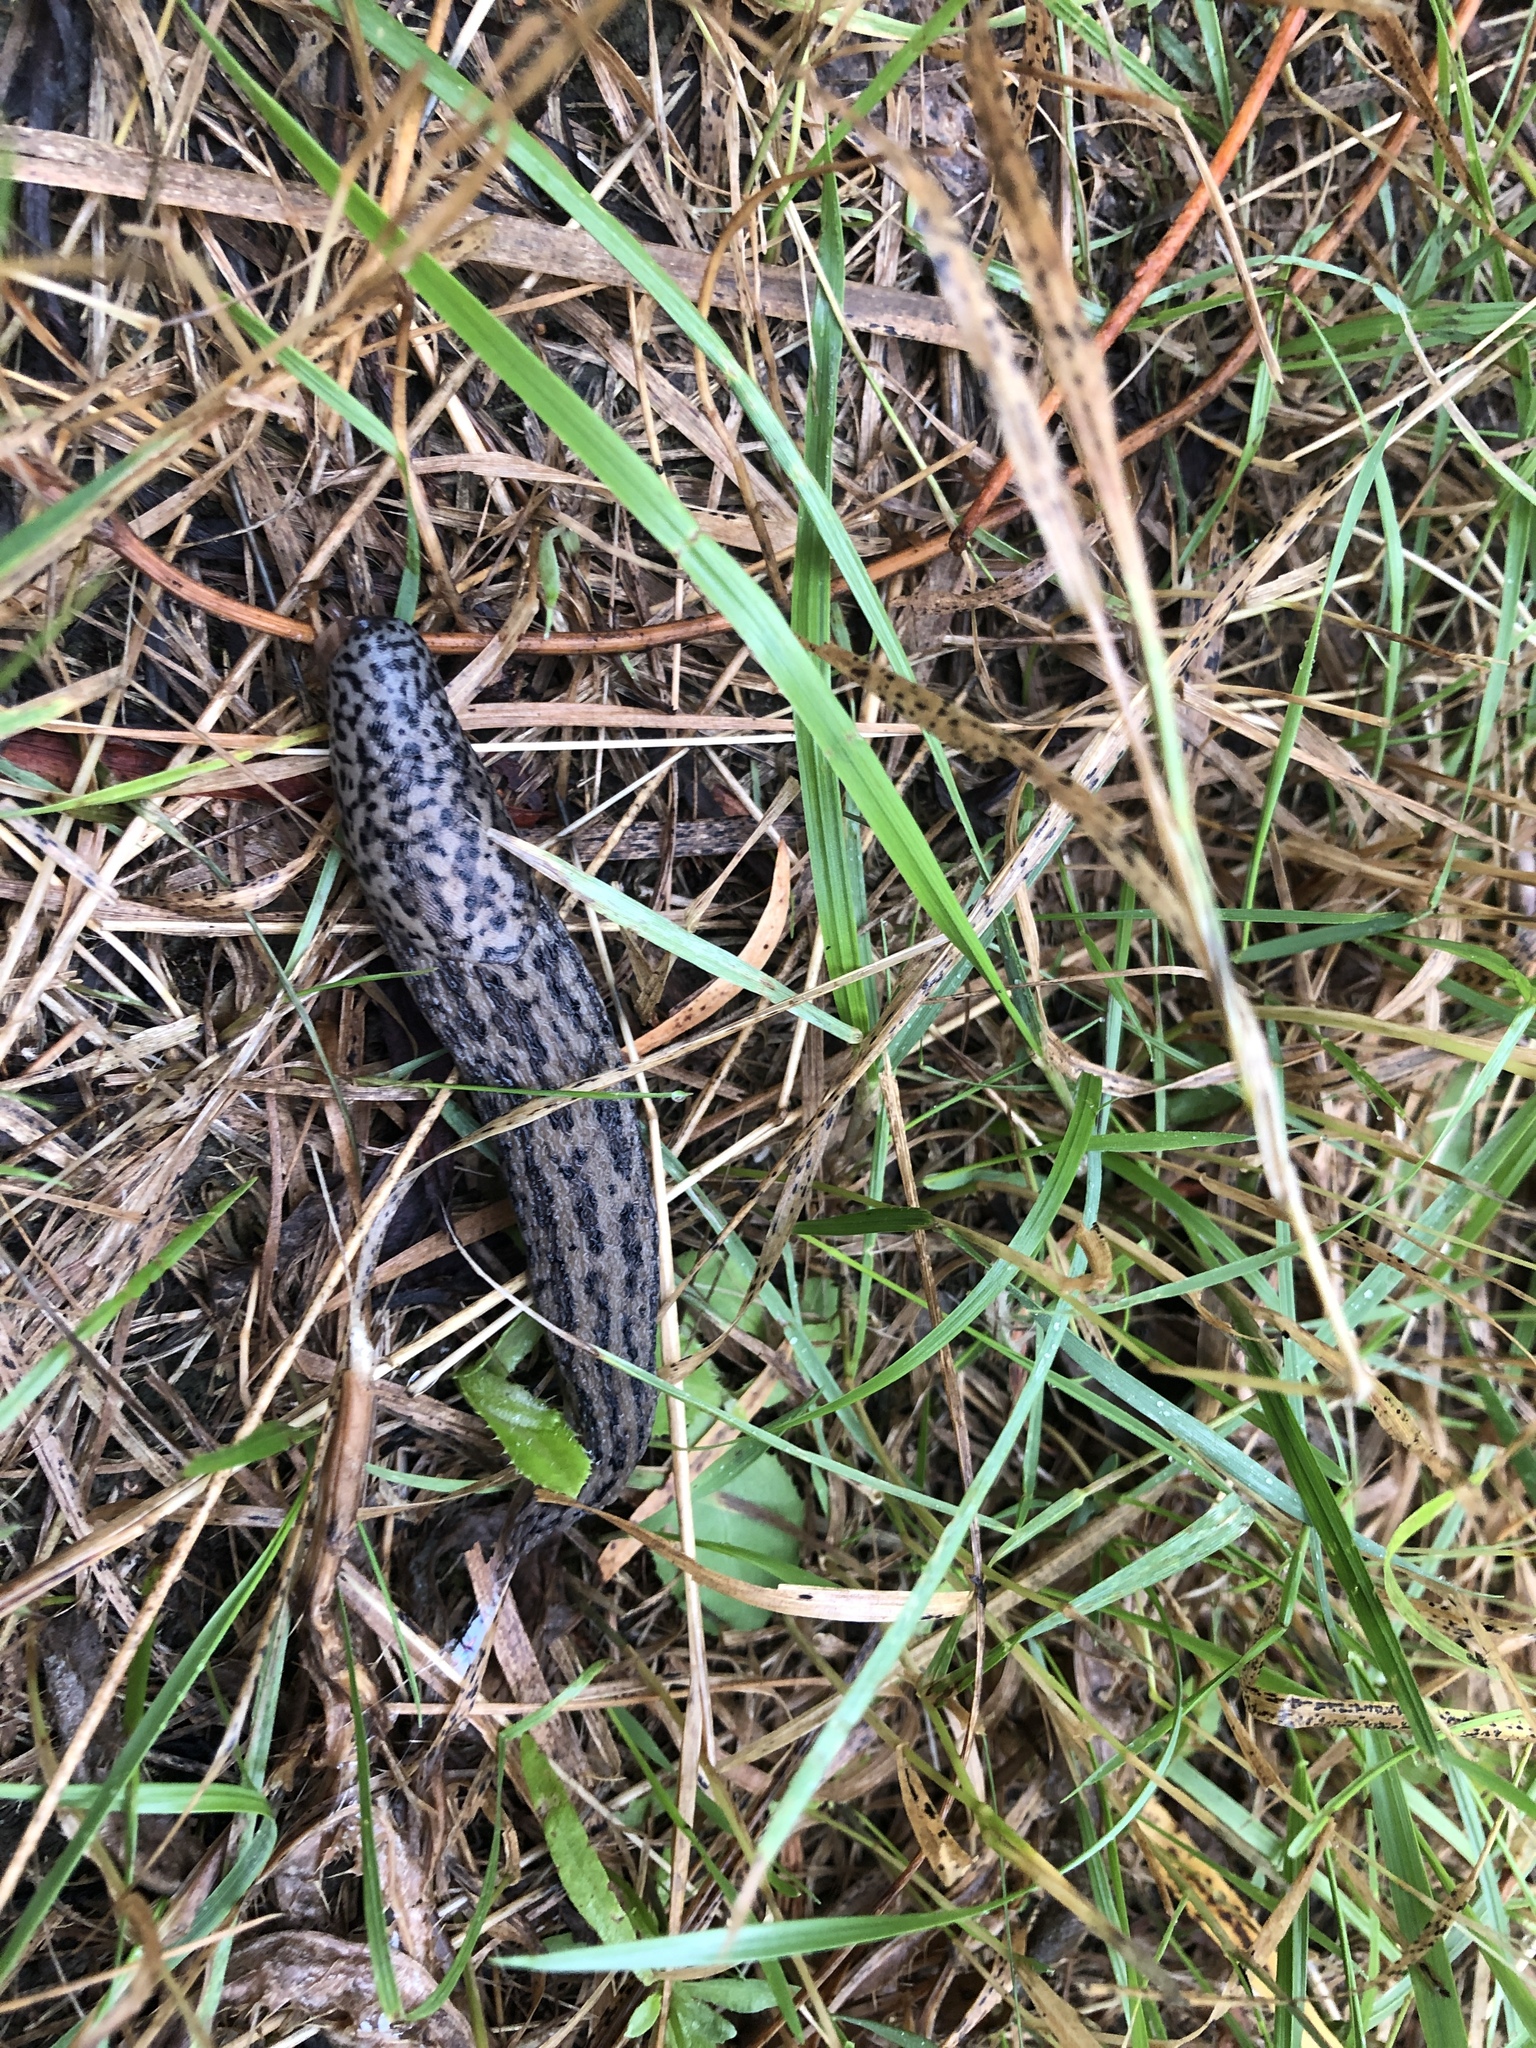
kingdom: Animalia
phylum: Mollusca
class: Gastropoda
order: Stylommatophora
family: Limacidae
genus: Limax
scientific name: Limax maximus
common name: Great grey slug
